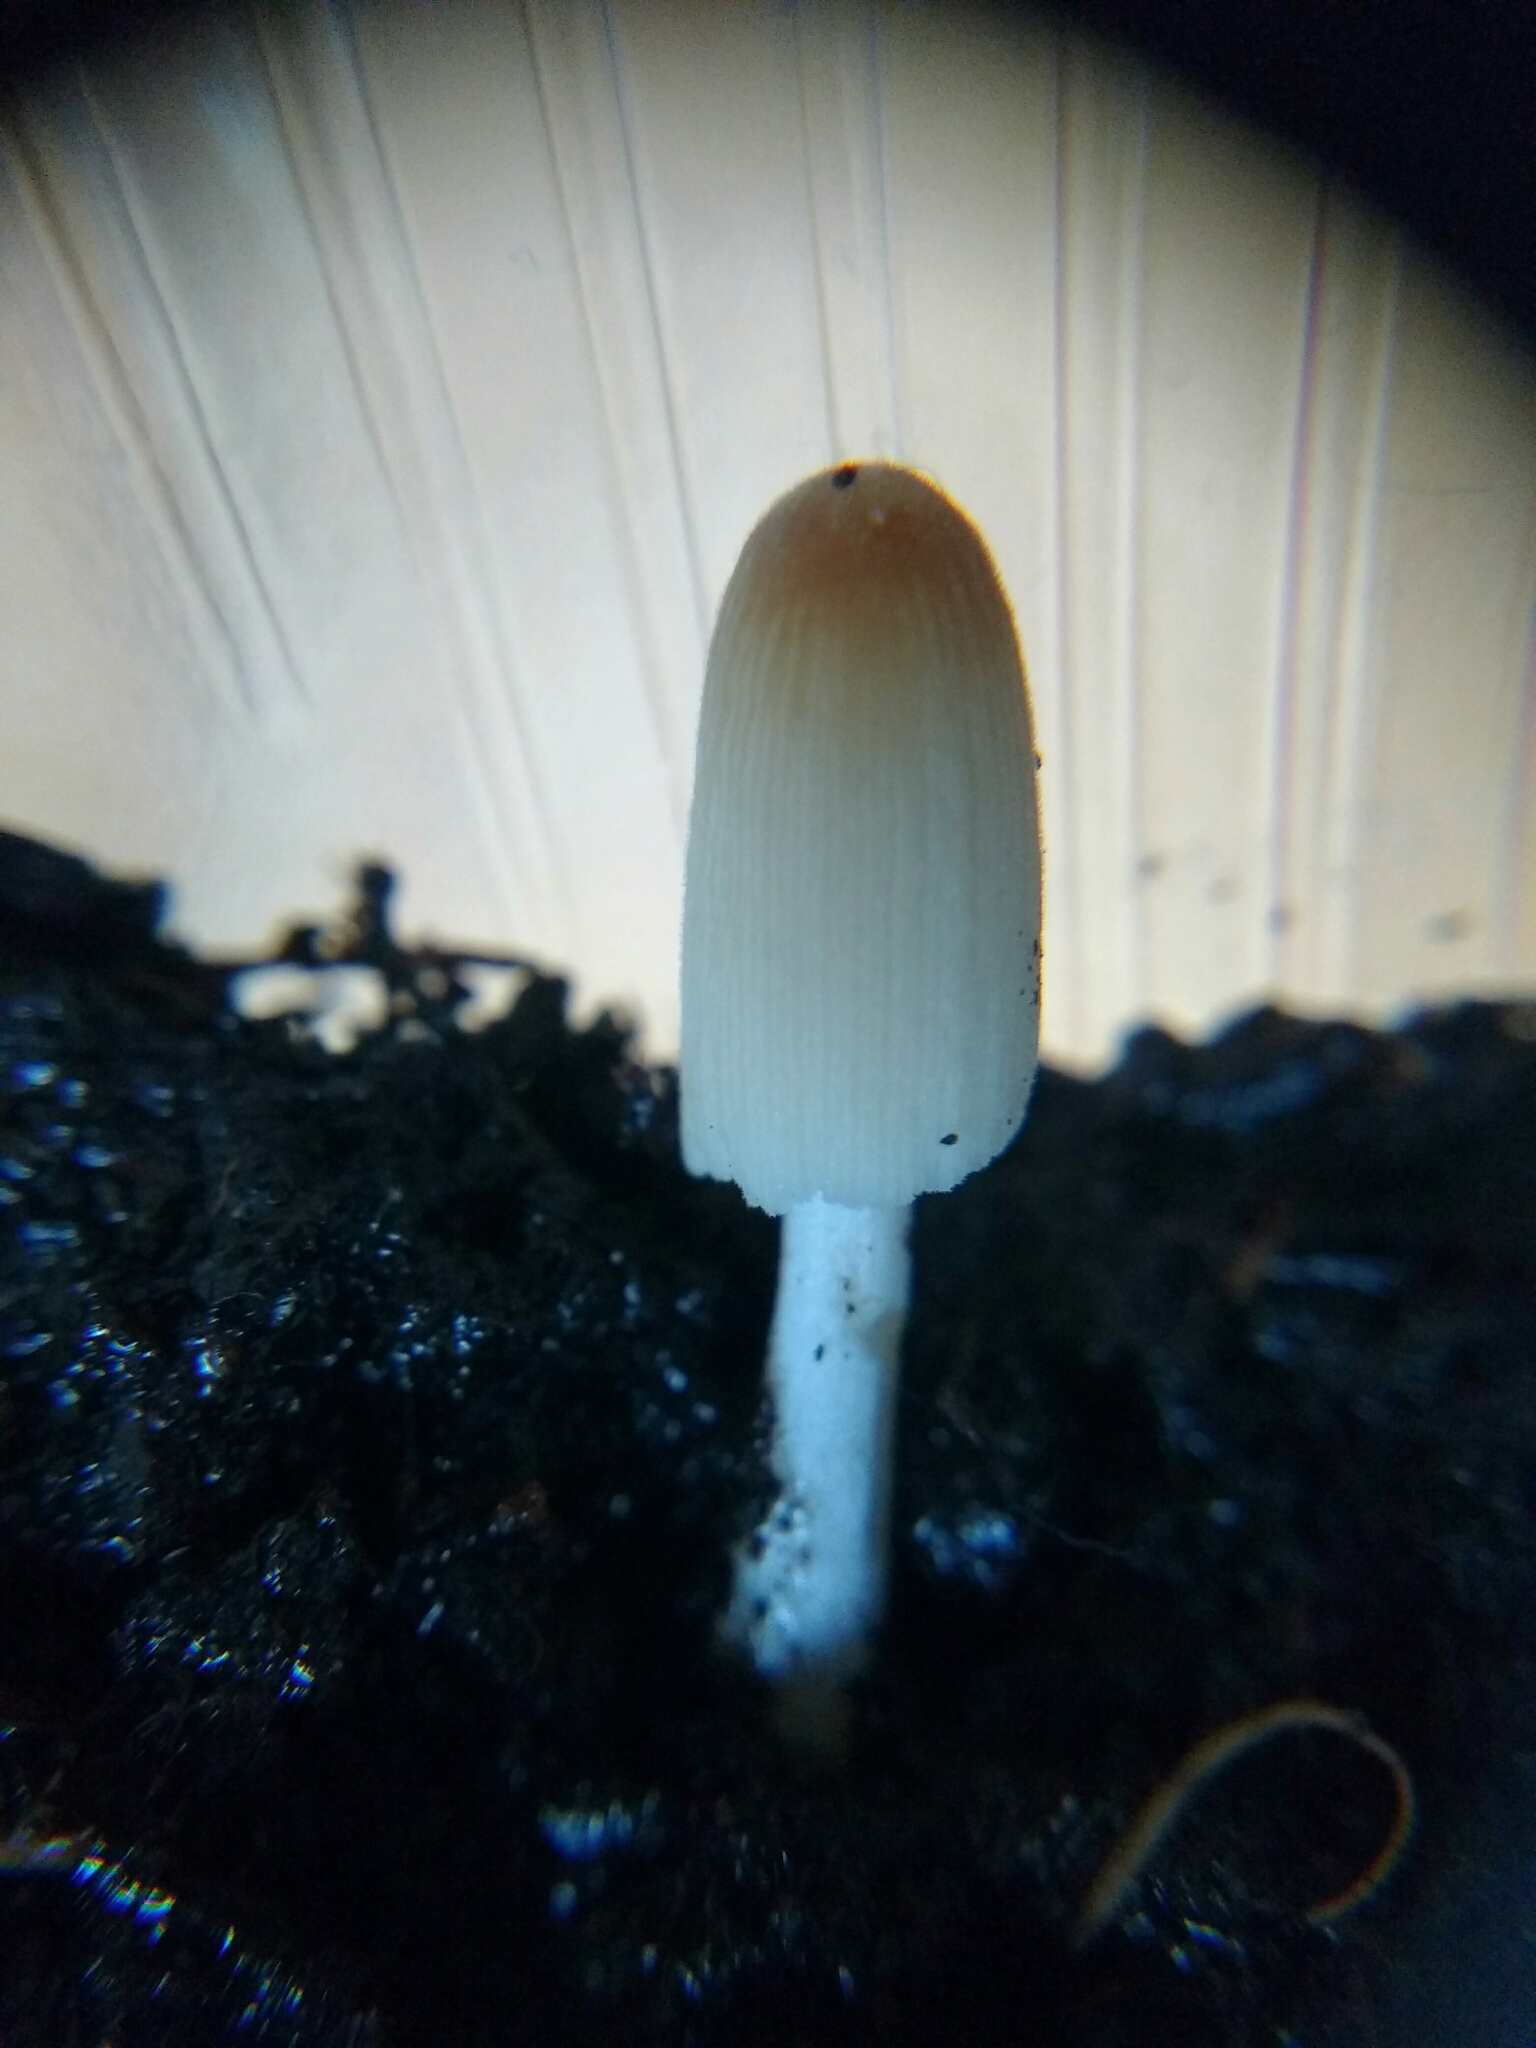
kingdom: Fungi
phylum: Basidiomycota
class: Agaricomycetes
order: Agaricales
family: Psathyrellaceae
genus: Parasola
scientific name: Parasola
